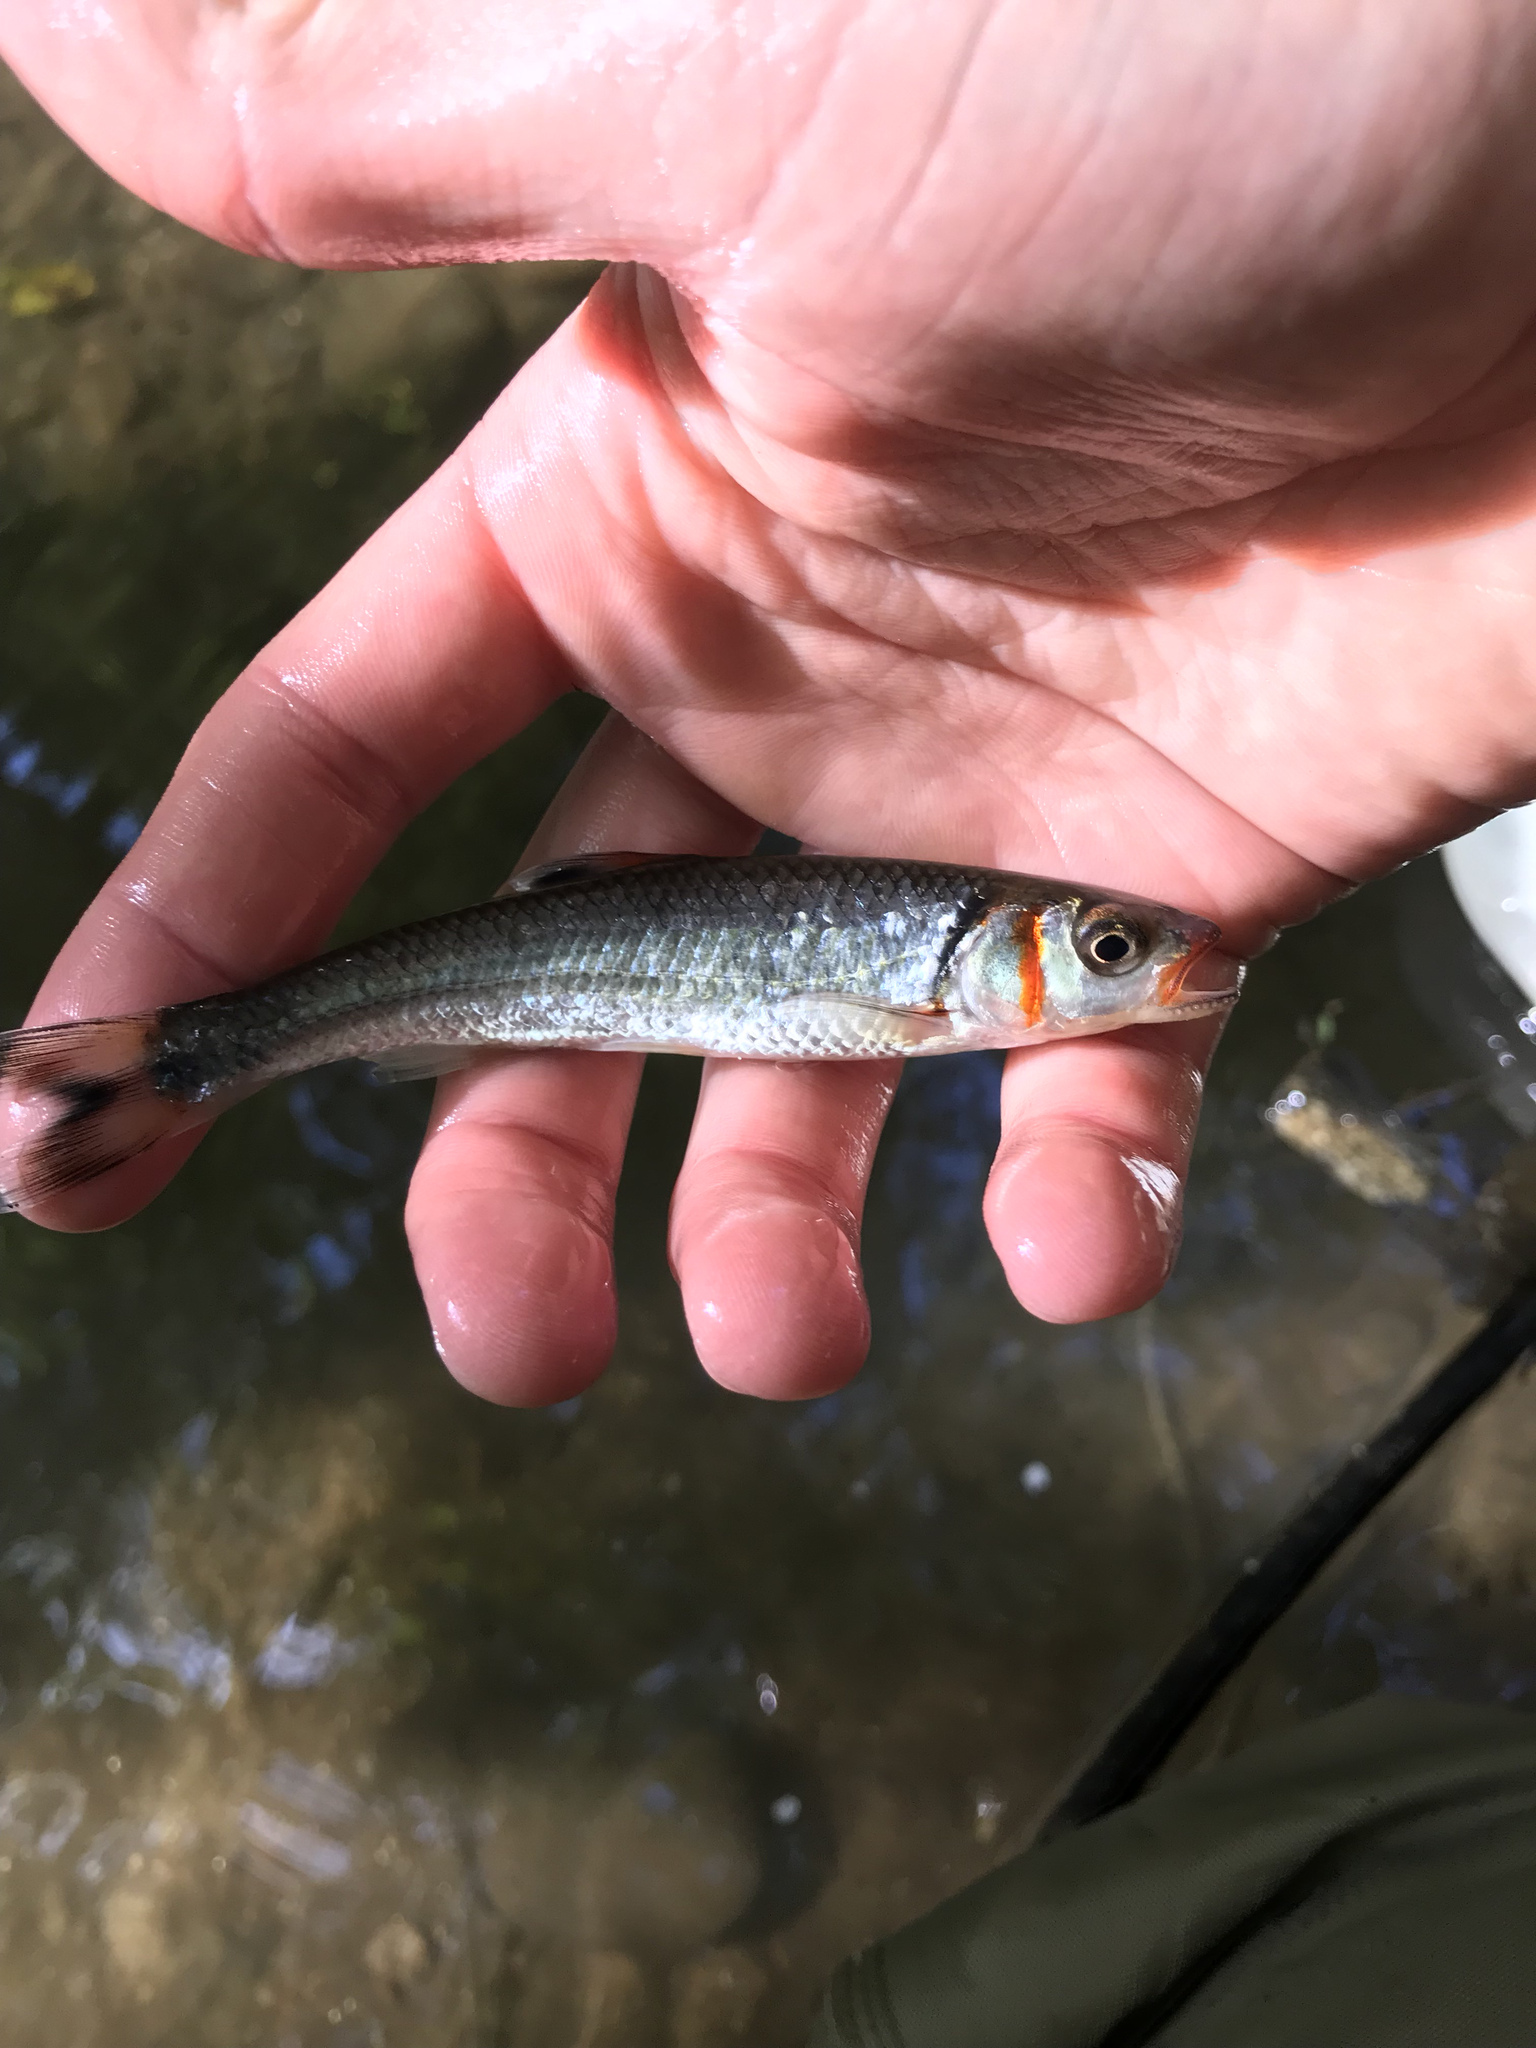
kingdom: Animalia
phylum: Chordata
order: Cypriniformes
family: Cyprinidae
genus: Luxilus
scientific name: Luxilus
